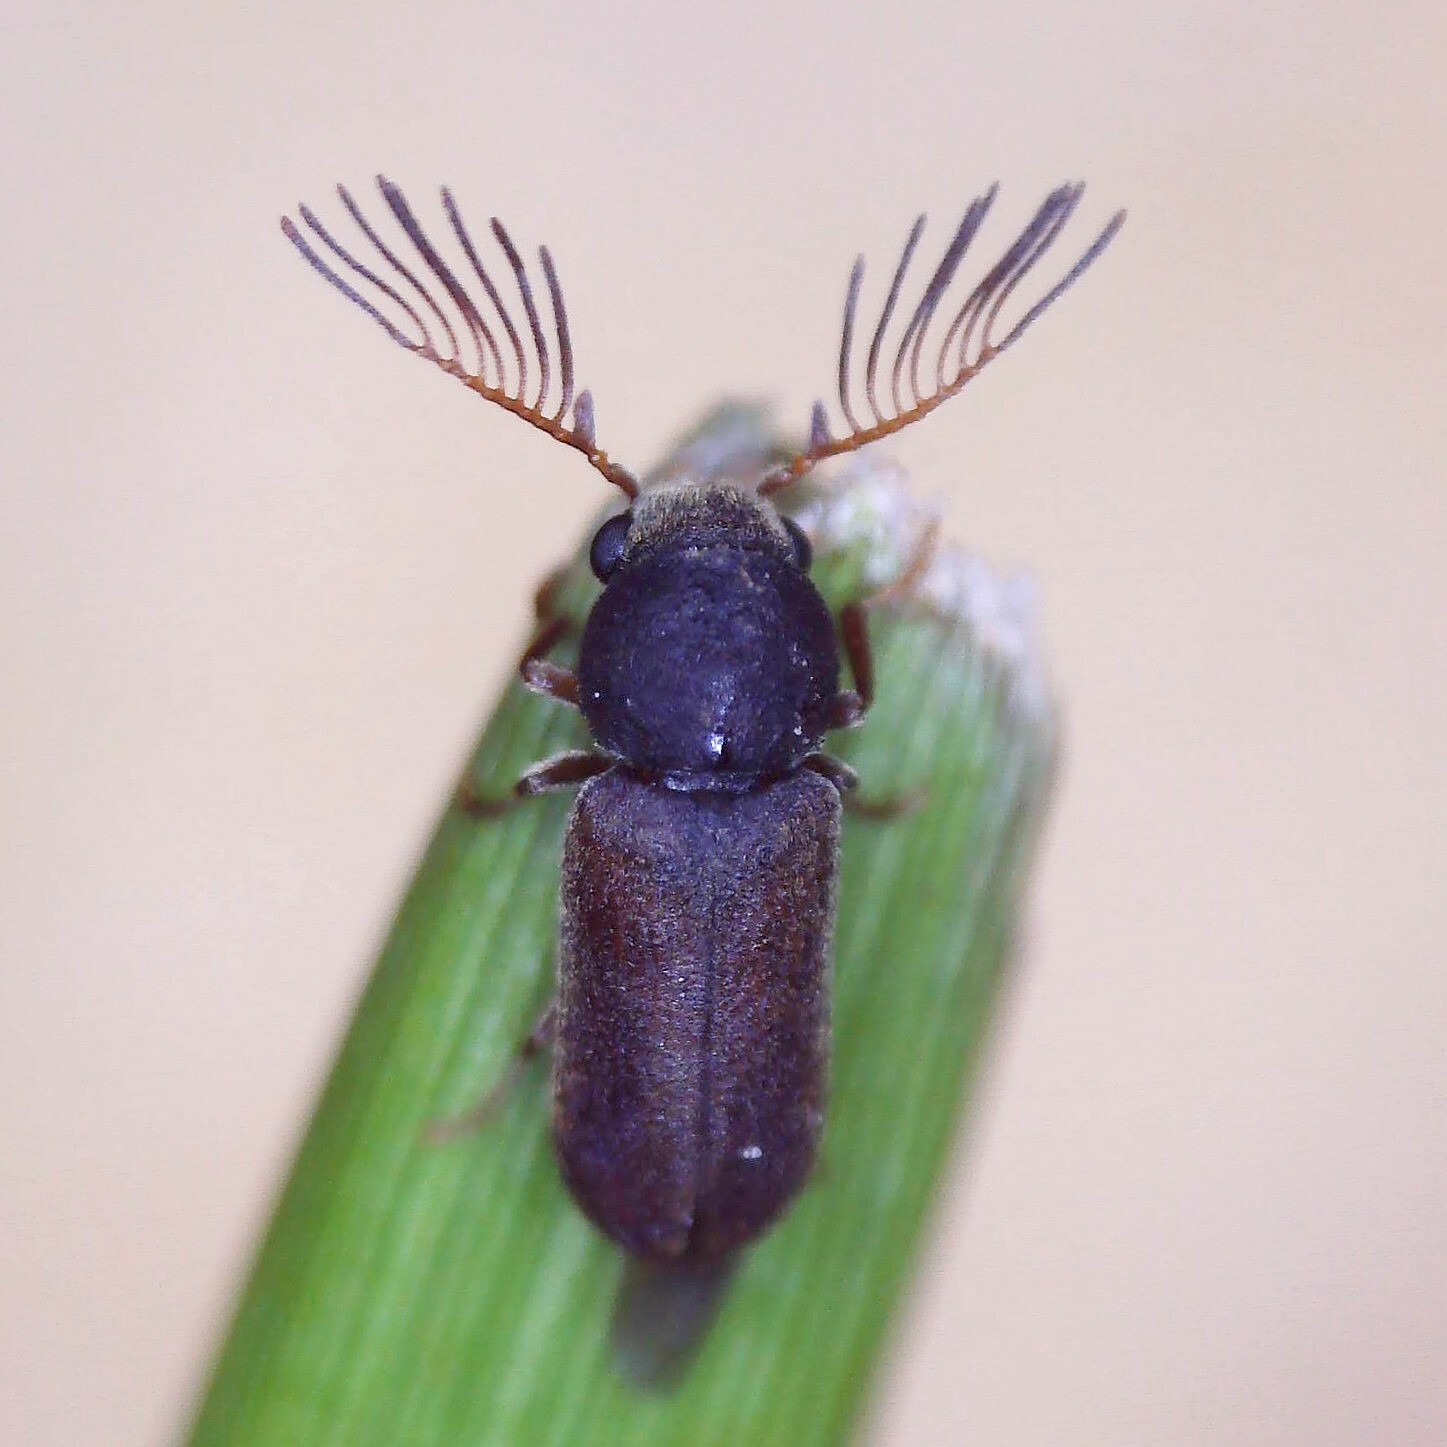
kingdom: Animalia
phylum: Arthropoda
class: Insecta
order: Coleoptera
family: Anobiidae
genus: Ptilinus
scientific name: Ptilinus pectinicornis
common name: Fan-bearing wood-borer
